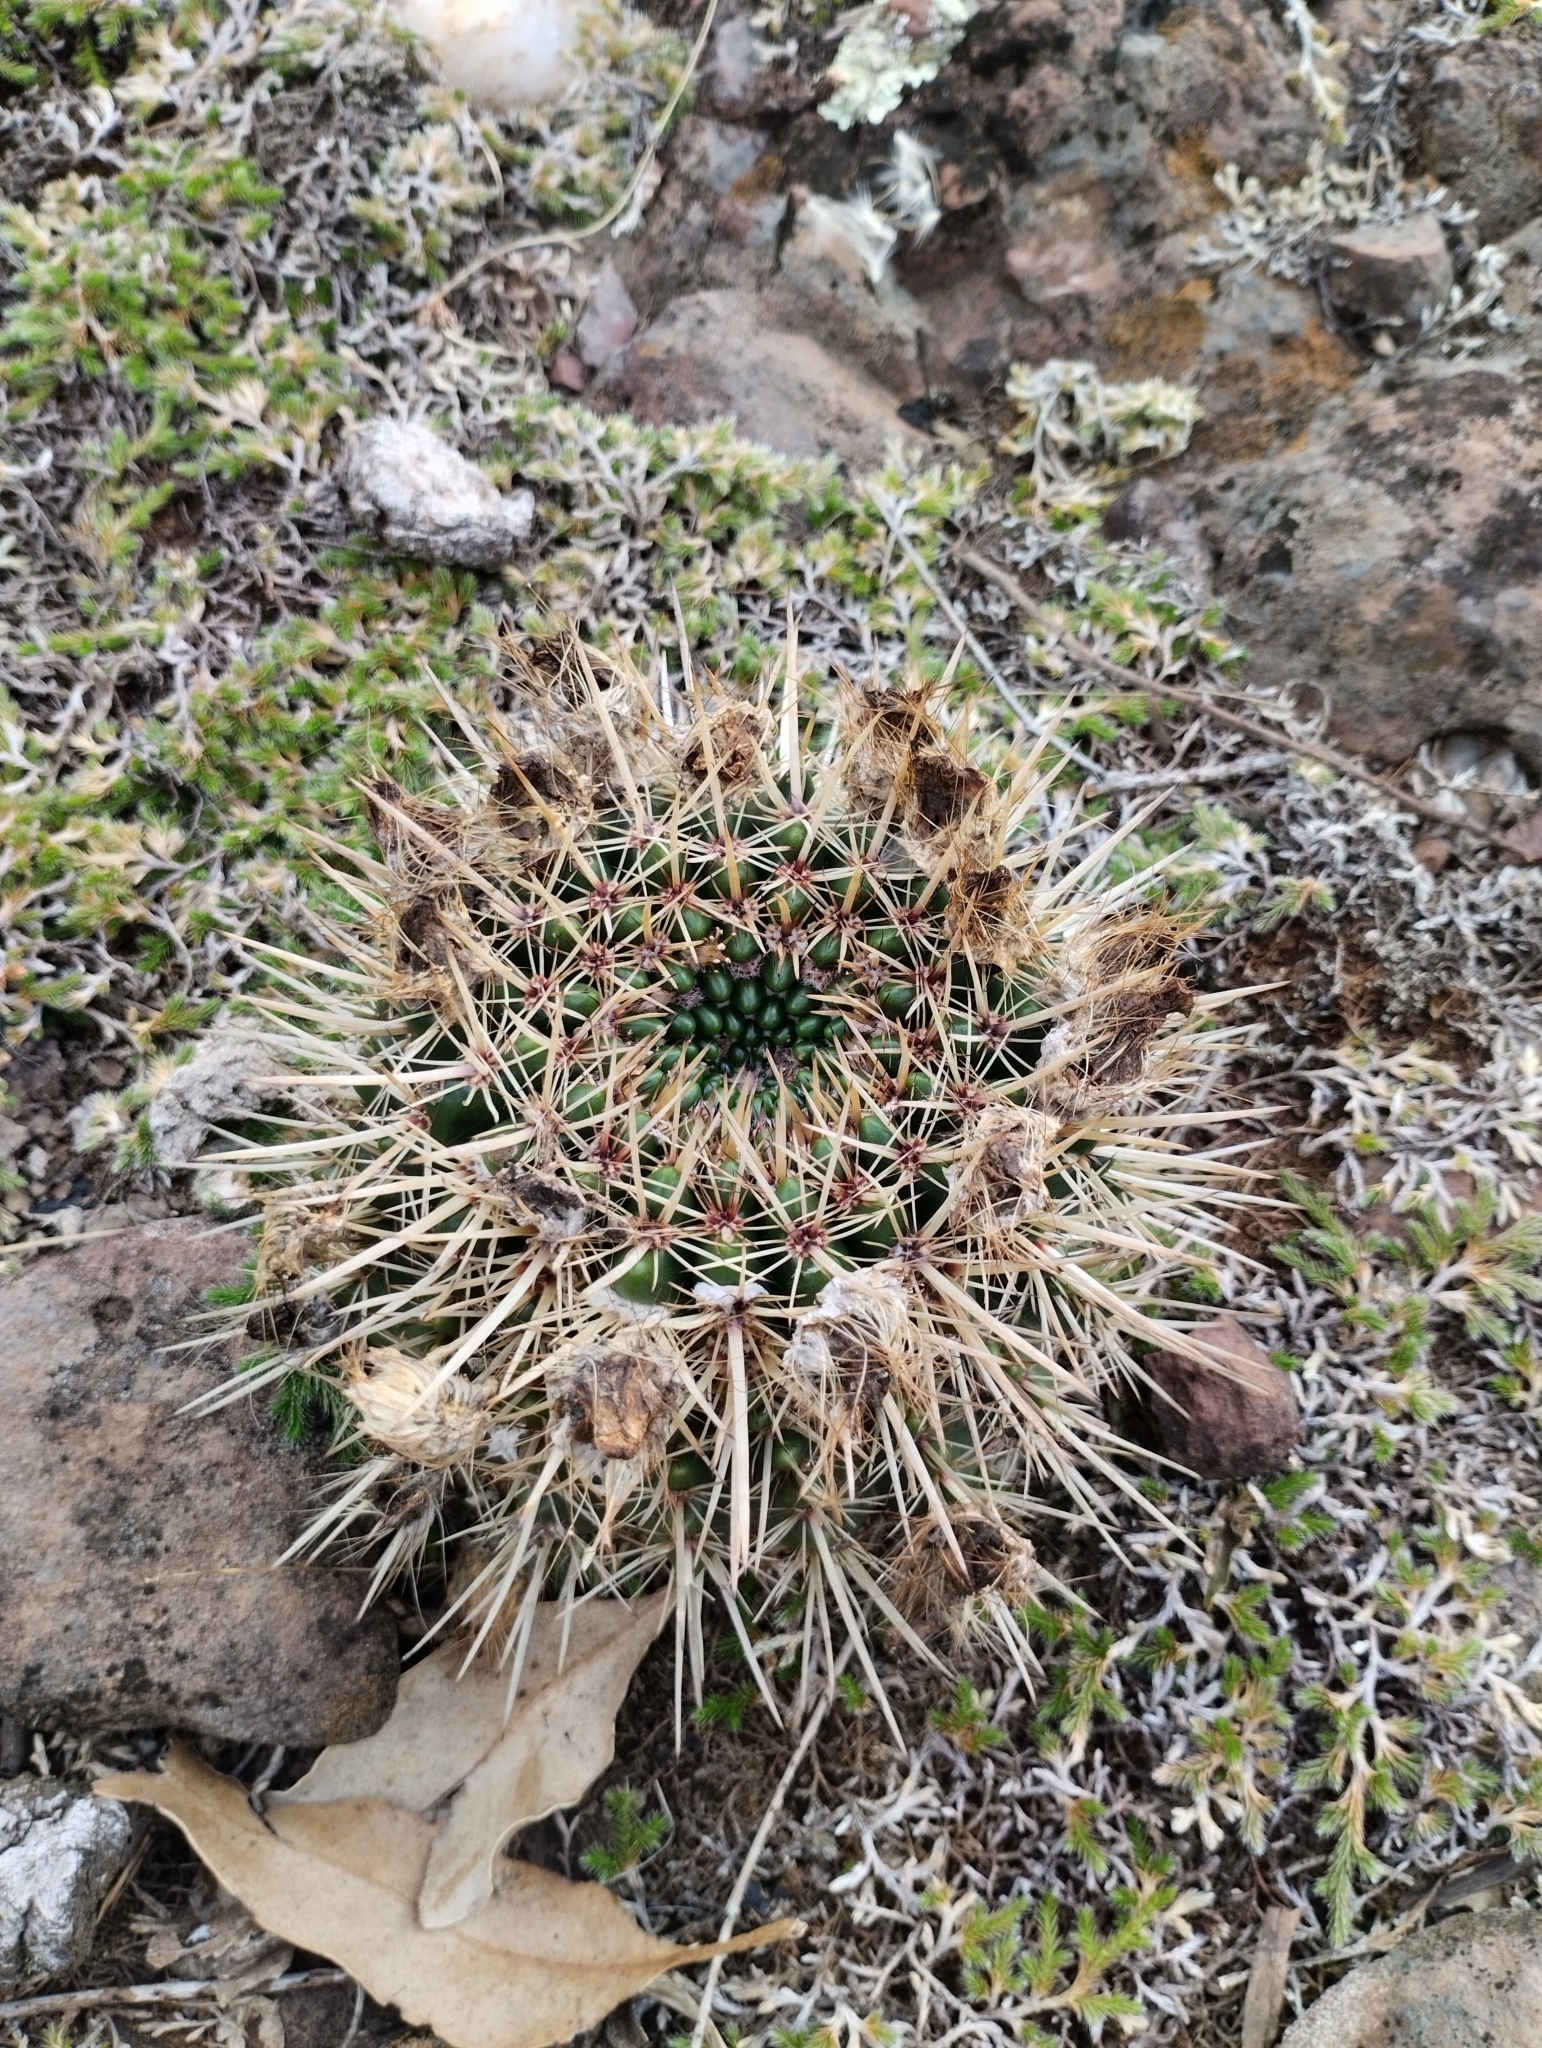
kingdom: Plantae
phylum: Tracheophyta
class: Magnoliopsida
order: Caryophyllales
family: Cactaceae
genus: Parodia
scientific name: Parodia mammulosa
